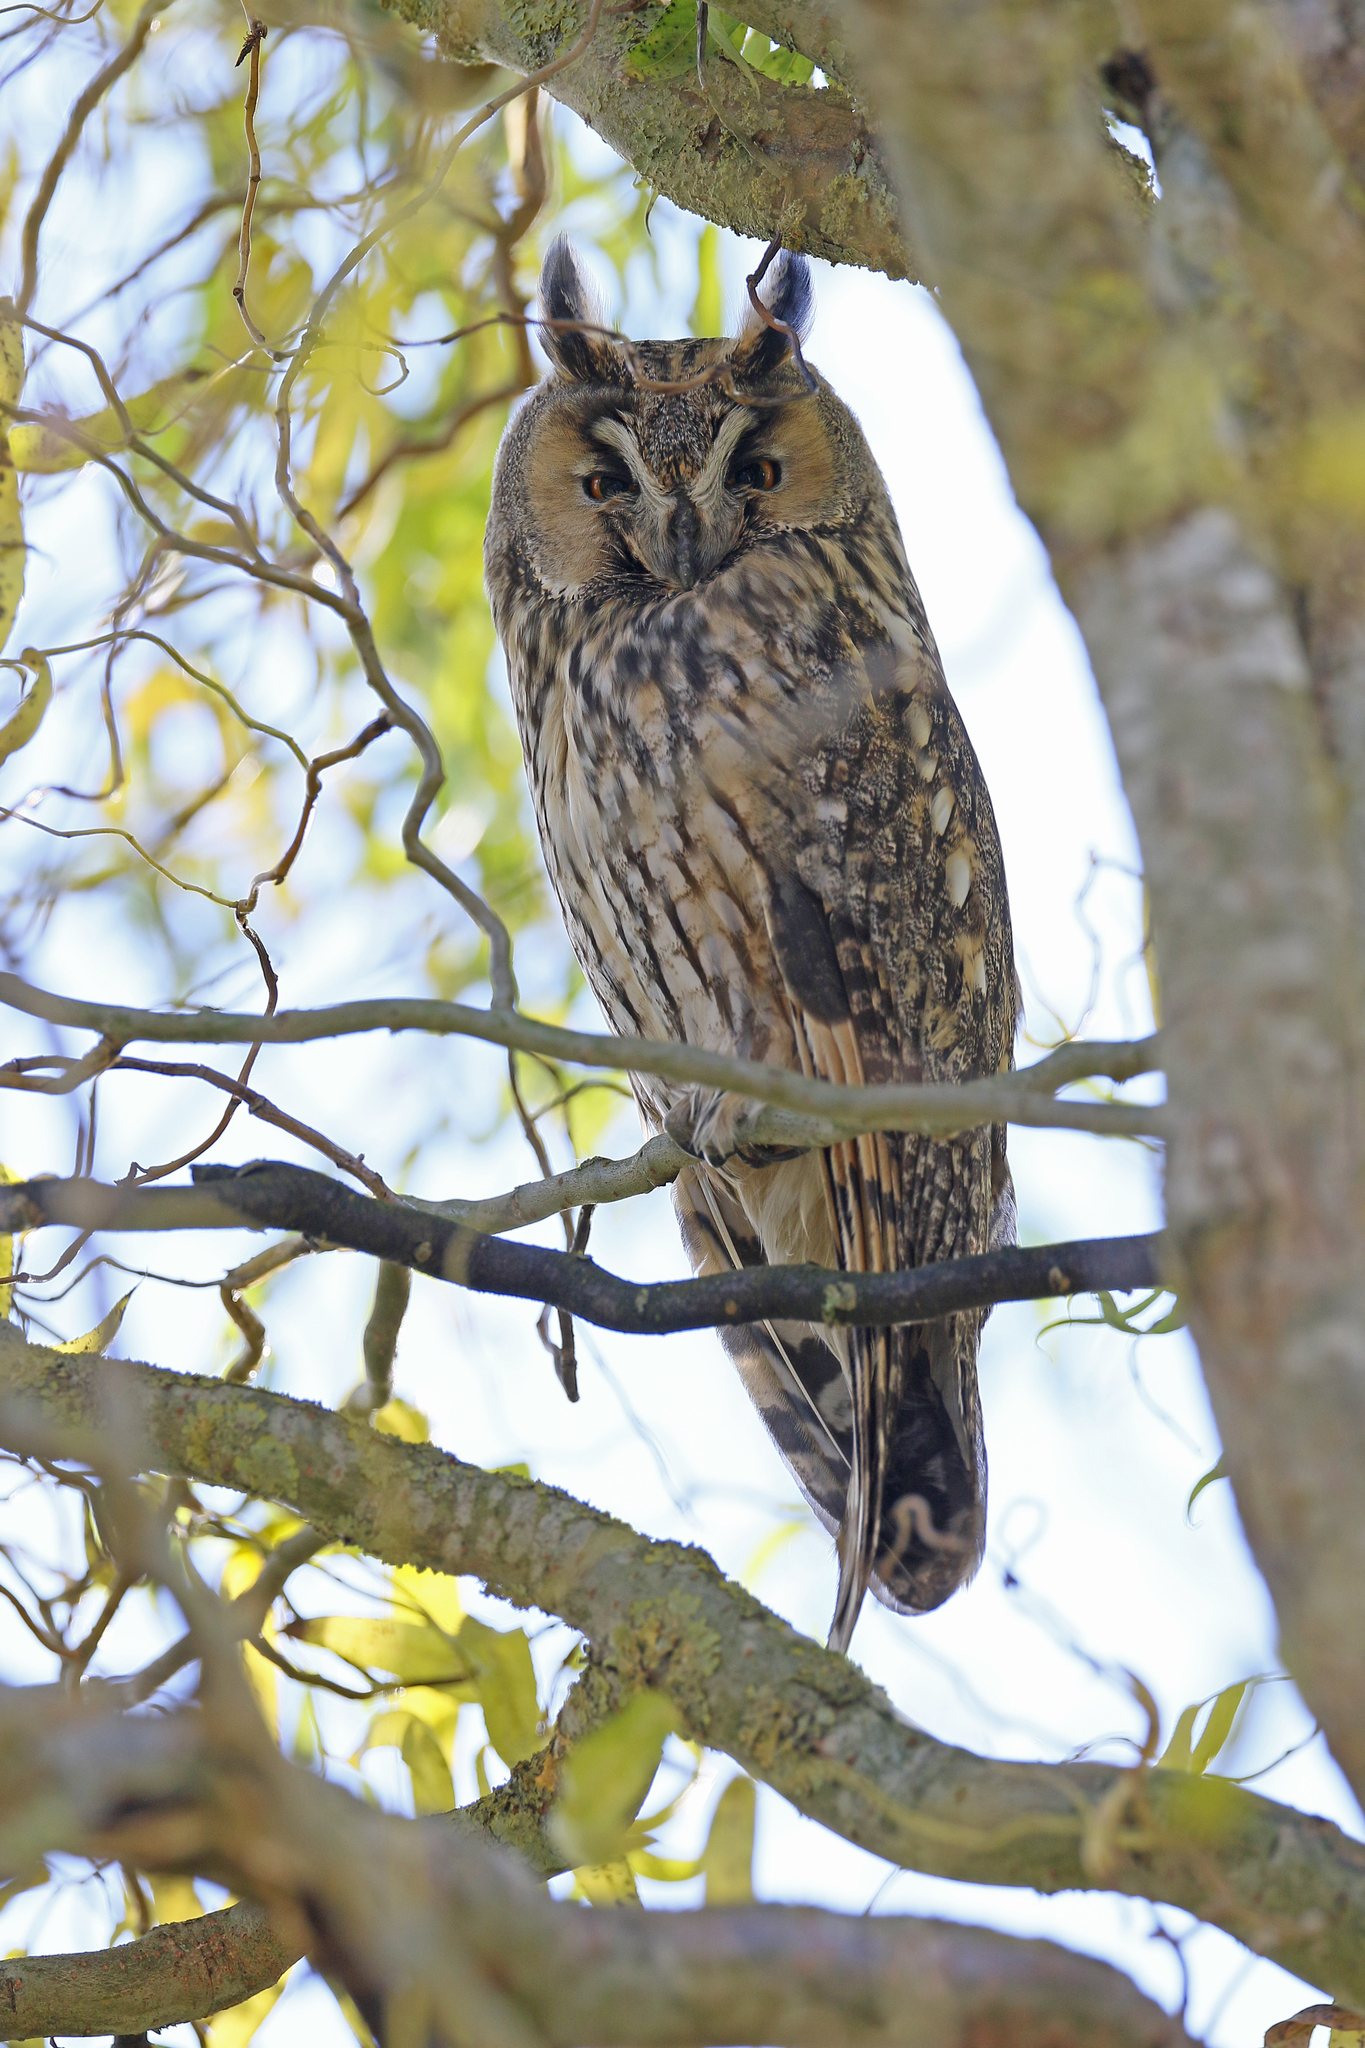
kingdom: Animalia
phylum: Chordata
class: Aves
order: Strigiformes
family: Strigidae
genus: Asio
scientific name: Asio otus
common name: Long-eared owl
